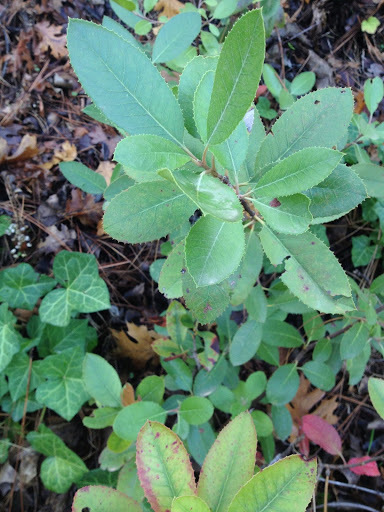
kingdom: Plantae
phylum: Tracheophyta
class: Magnoliopsida
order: Rosales
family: Rosaceae
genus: Heteromeles
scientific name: Heteromeles arbutifolia
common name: California-holly
